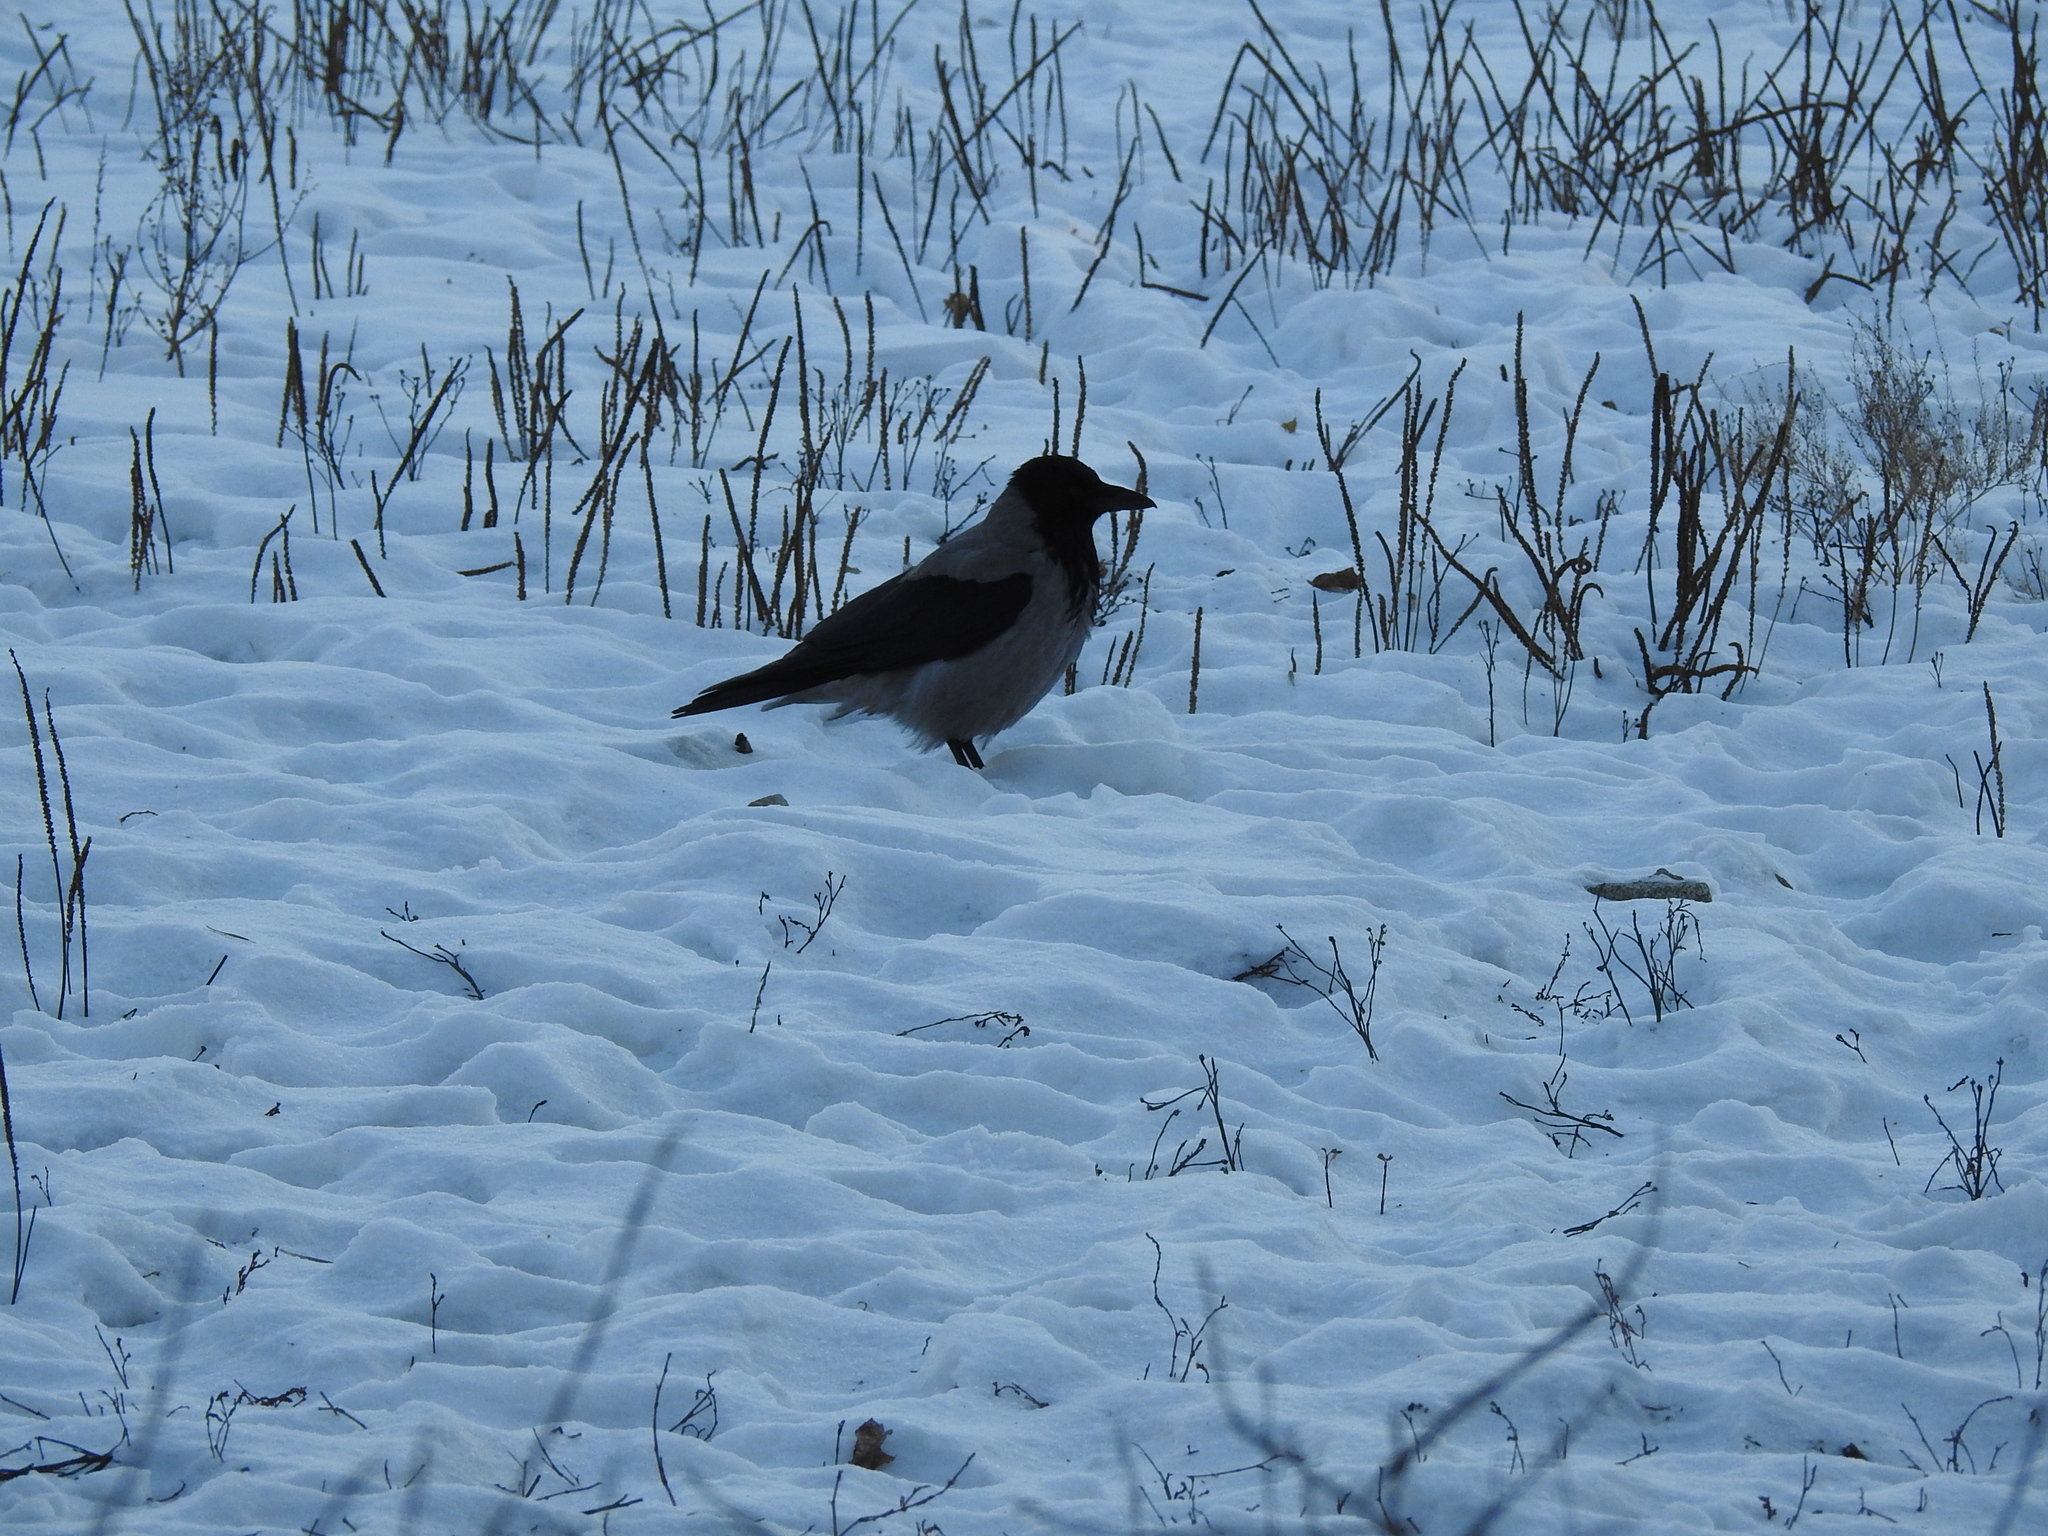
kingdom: Animalia
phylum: Chordata
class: Aves
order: Passeriformes
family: Corvidae
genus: Corvus
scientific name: Corvus cornix
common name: Hooded crow
